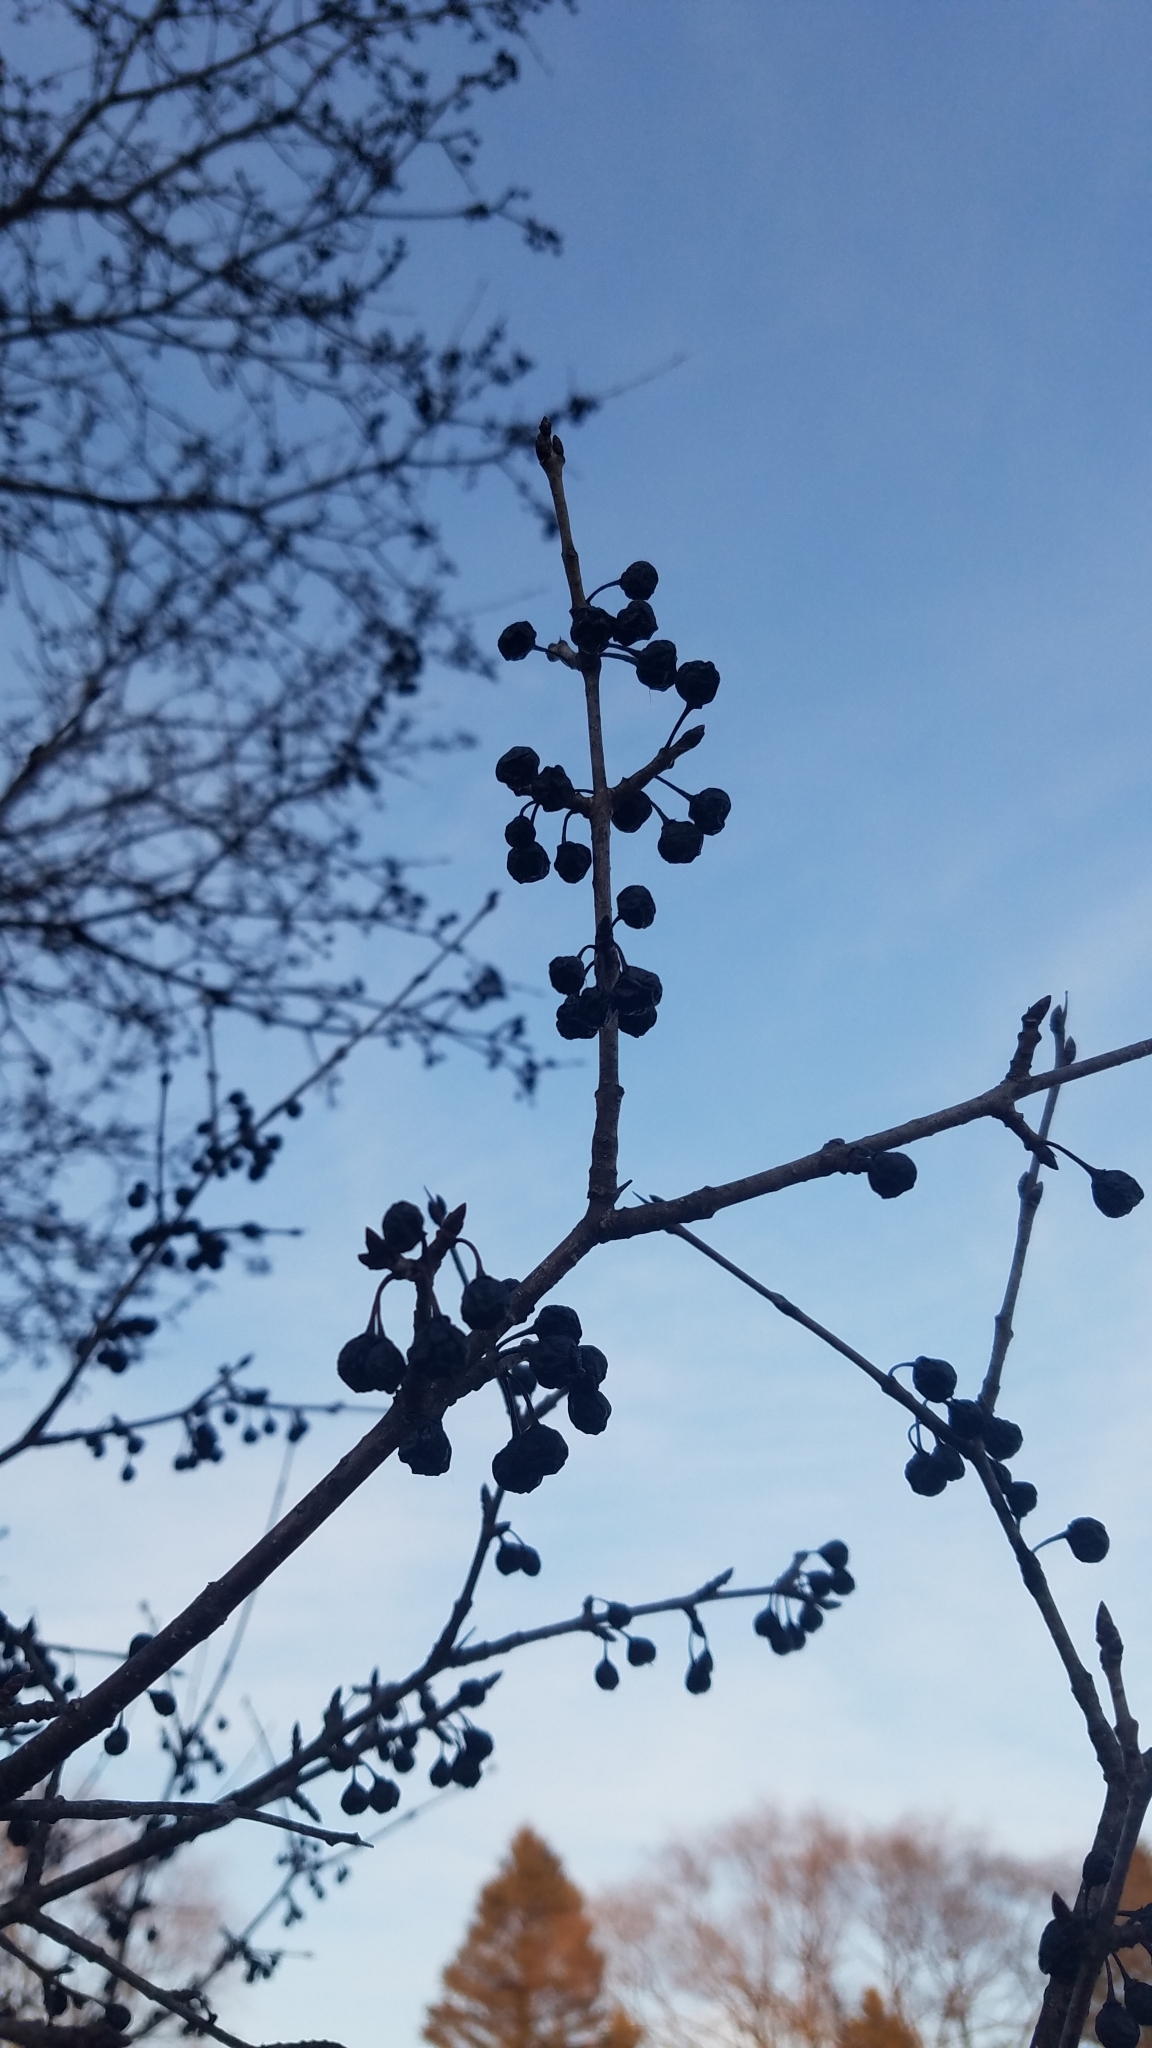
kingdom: Plantae
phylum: Tracheophyta
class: Magnoliopsida
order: Rosales
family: Rhamnaceae
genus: Rhamnus
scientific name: Rhamnus cathartica
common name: Common buckthorn
